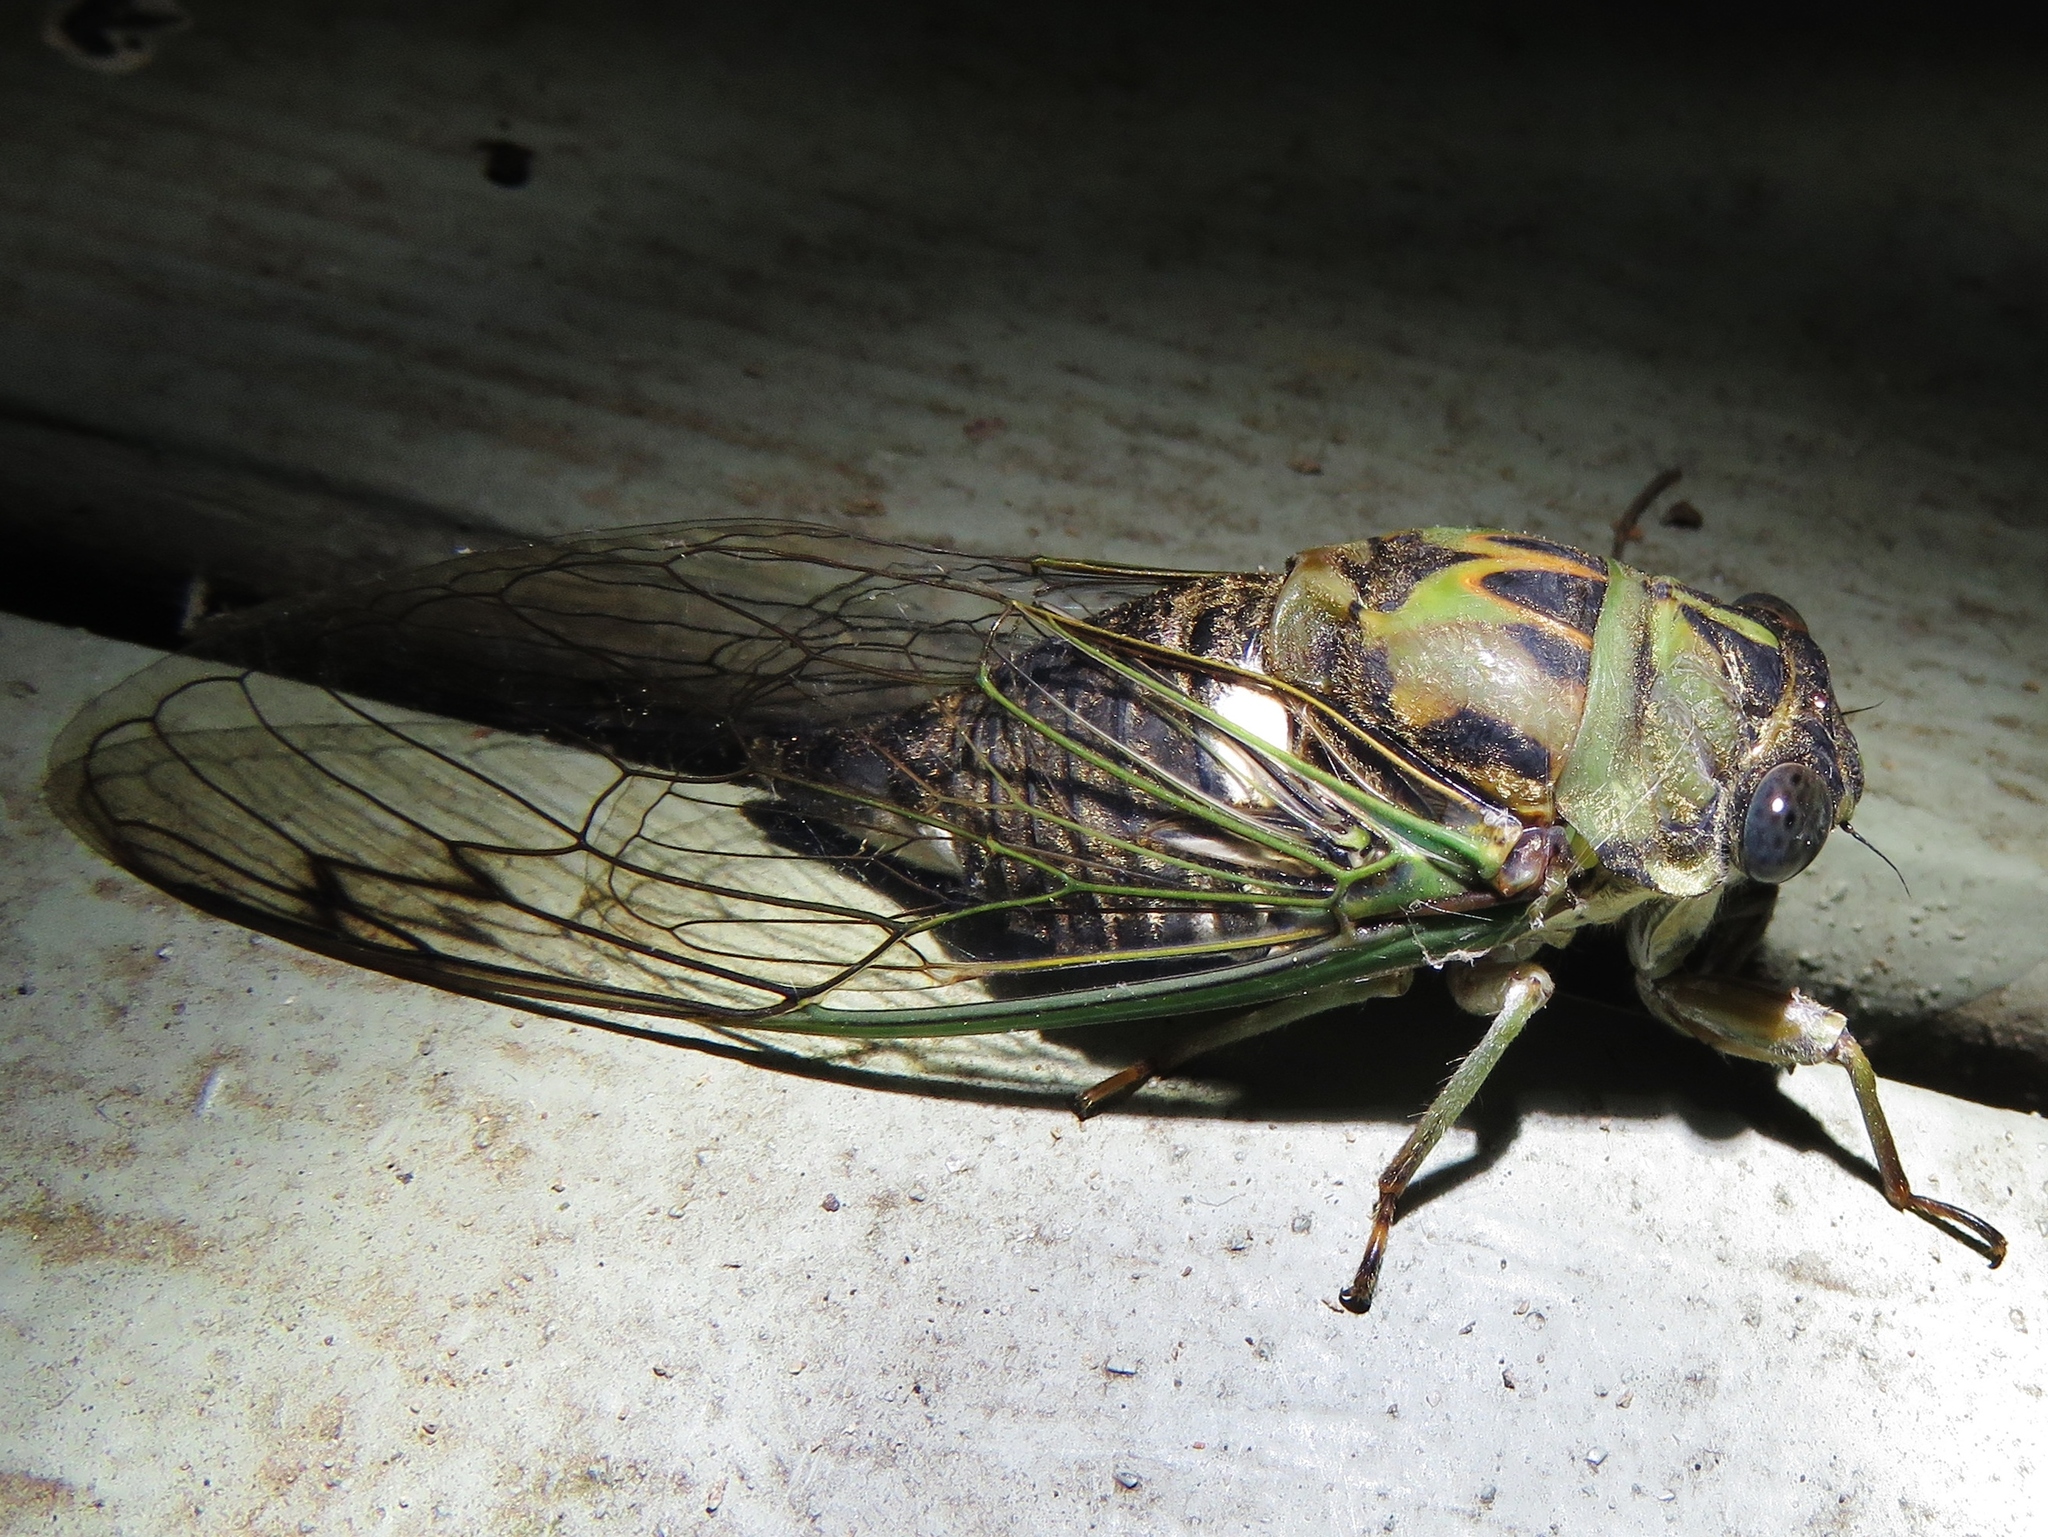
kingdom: Animalia
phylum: Arthropoda
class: Insecta
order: Hemiptera
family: Cicadidae
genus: Neotibicen
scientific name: Neotibicen pruinosus
